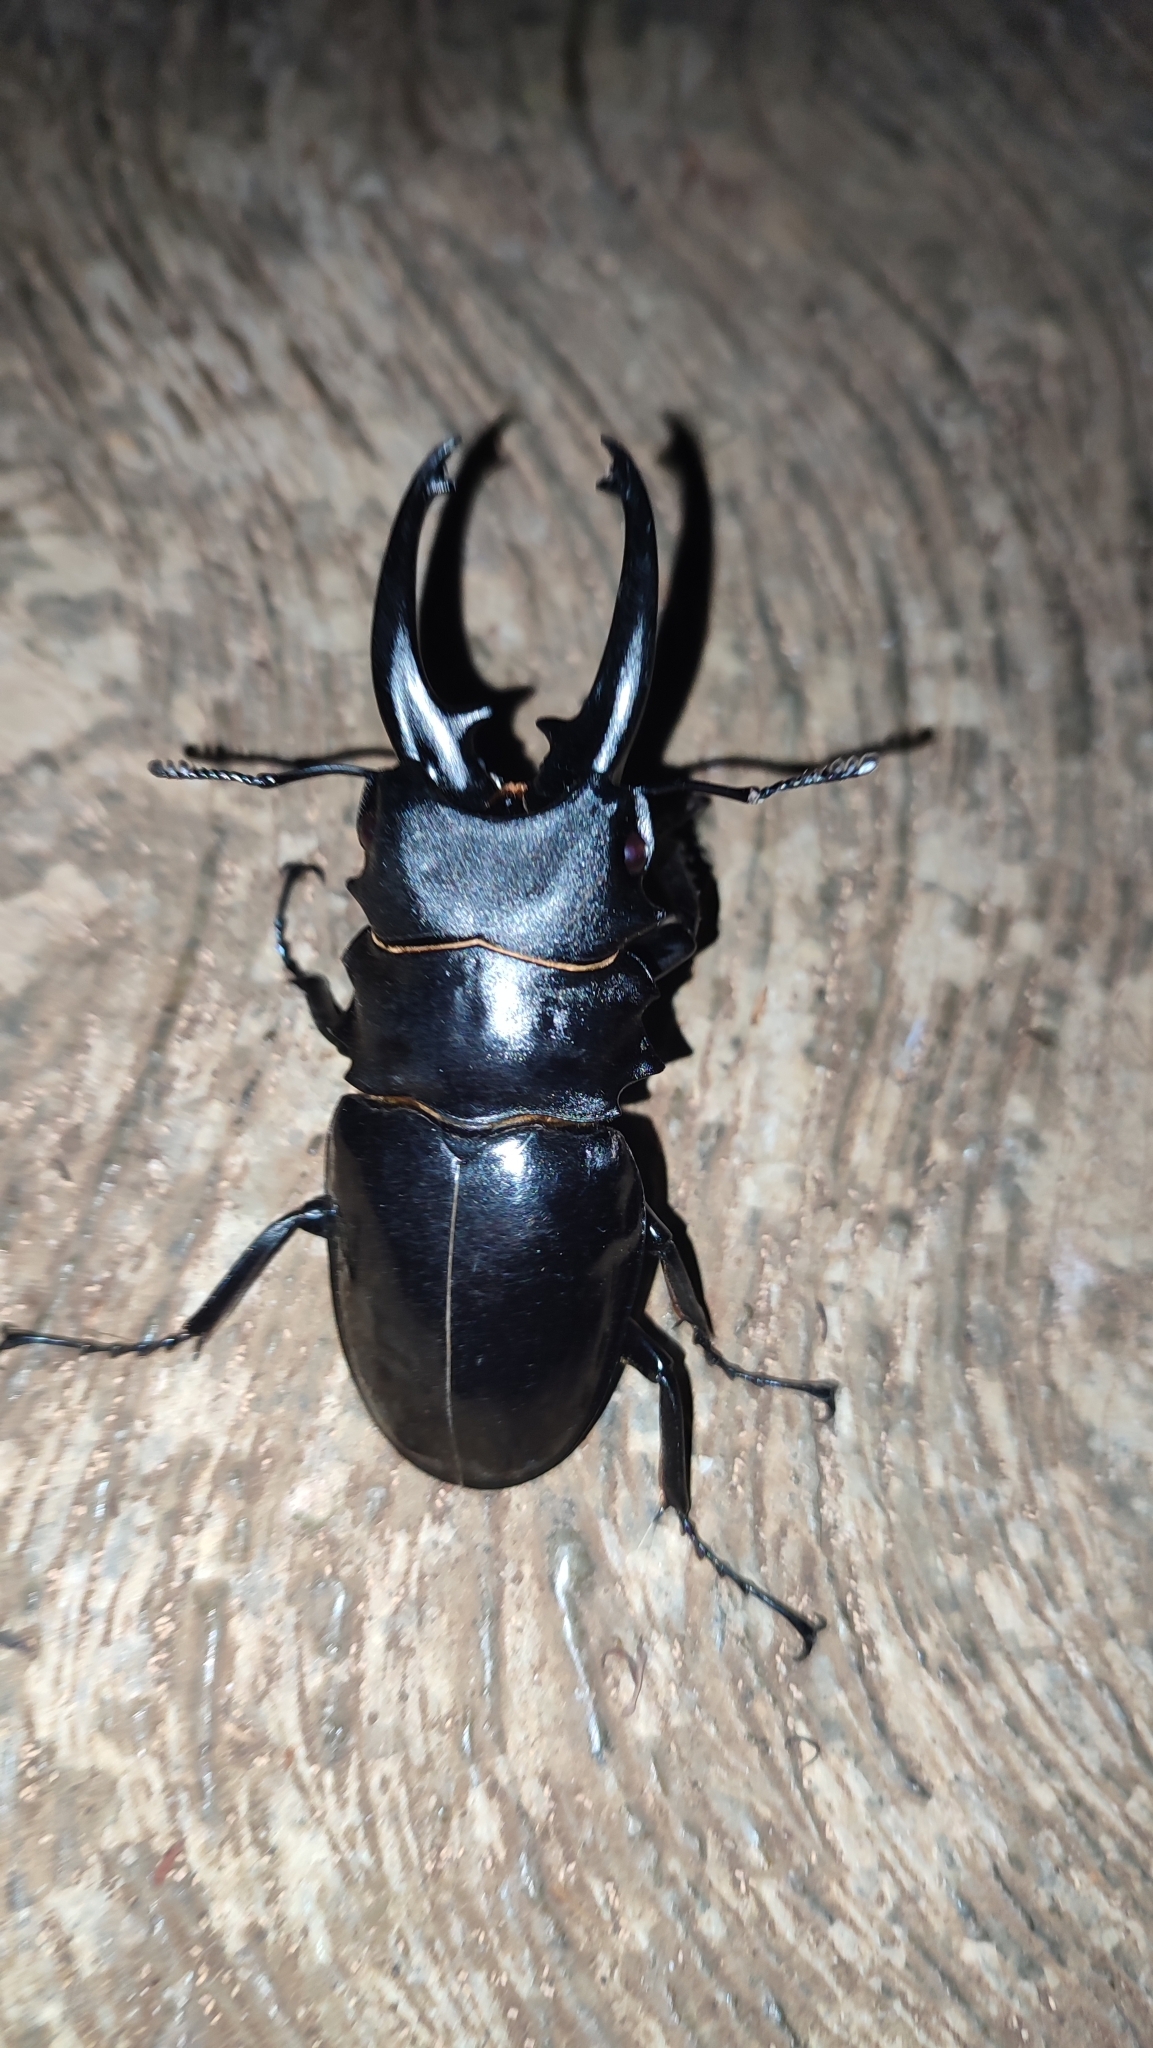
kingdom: Animalia
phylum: Arthropoda
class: Insecta
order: Coleoptera
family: Lucanidae
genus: Odontolabis
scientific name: Odontolabis
